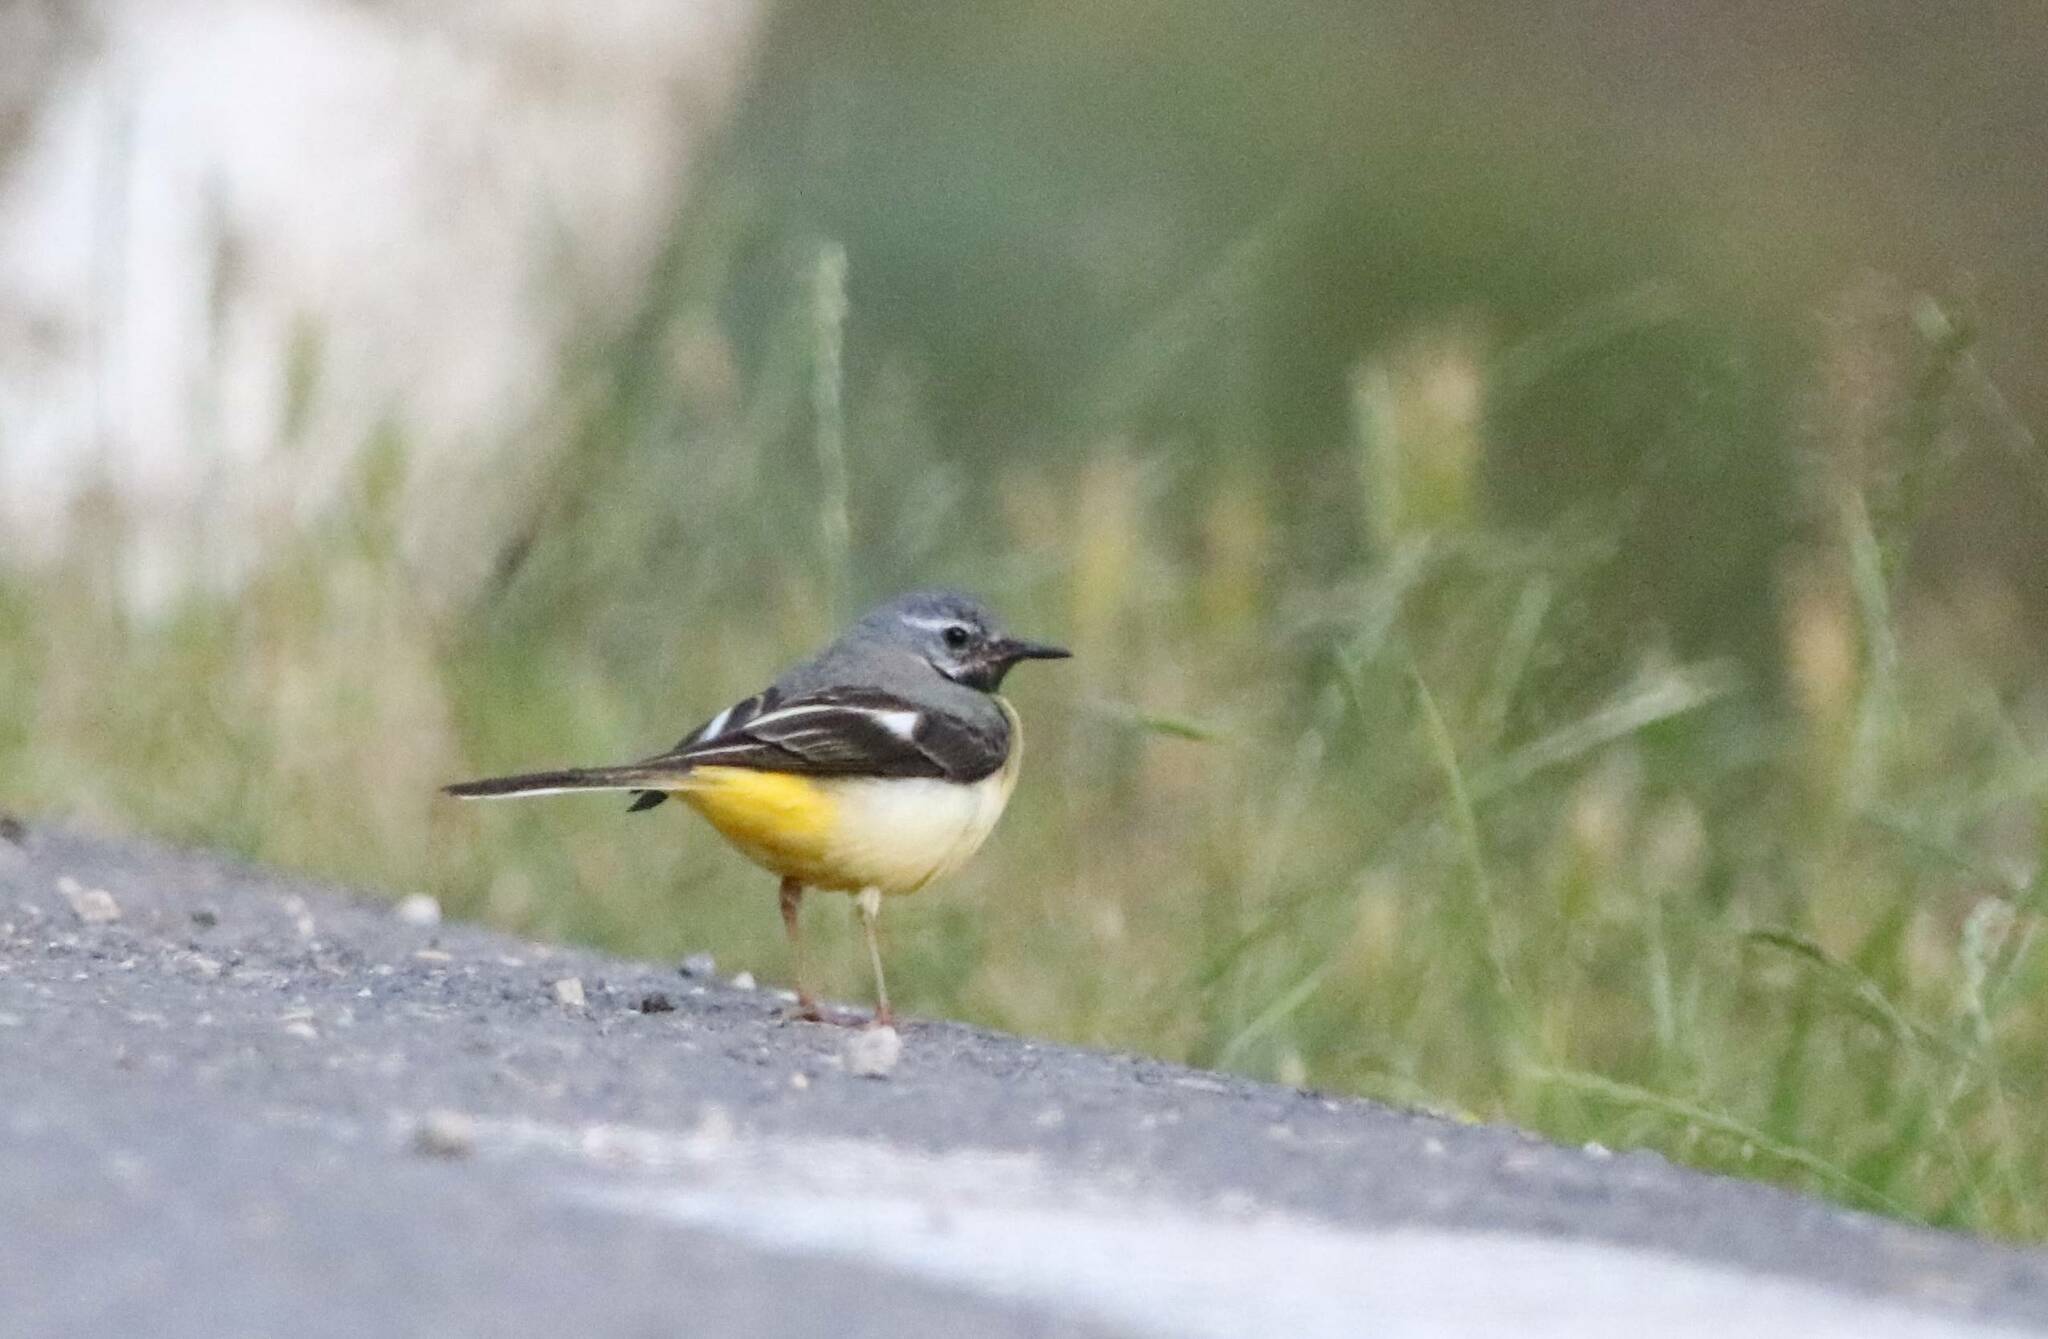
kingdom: Animalia
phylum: Chordata
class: Aves
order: Passeriformes
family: Motacillidae
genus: Motacilla
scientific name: Motacilla cinerea
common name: Grey wagtail
